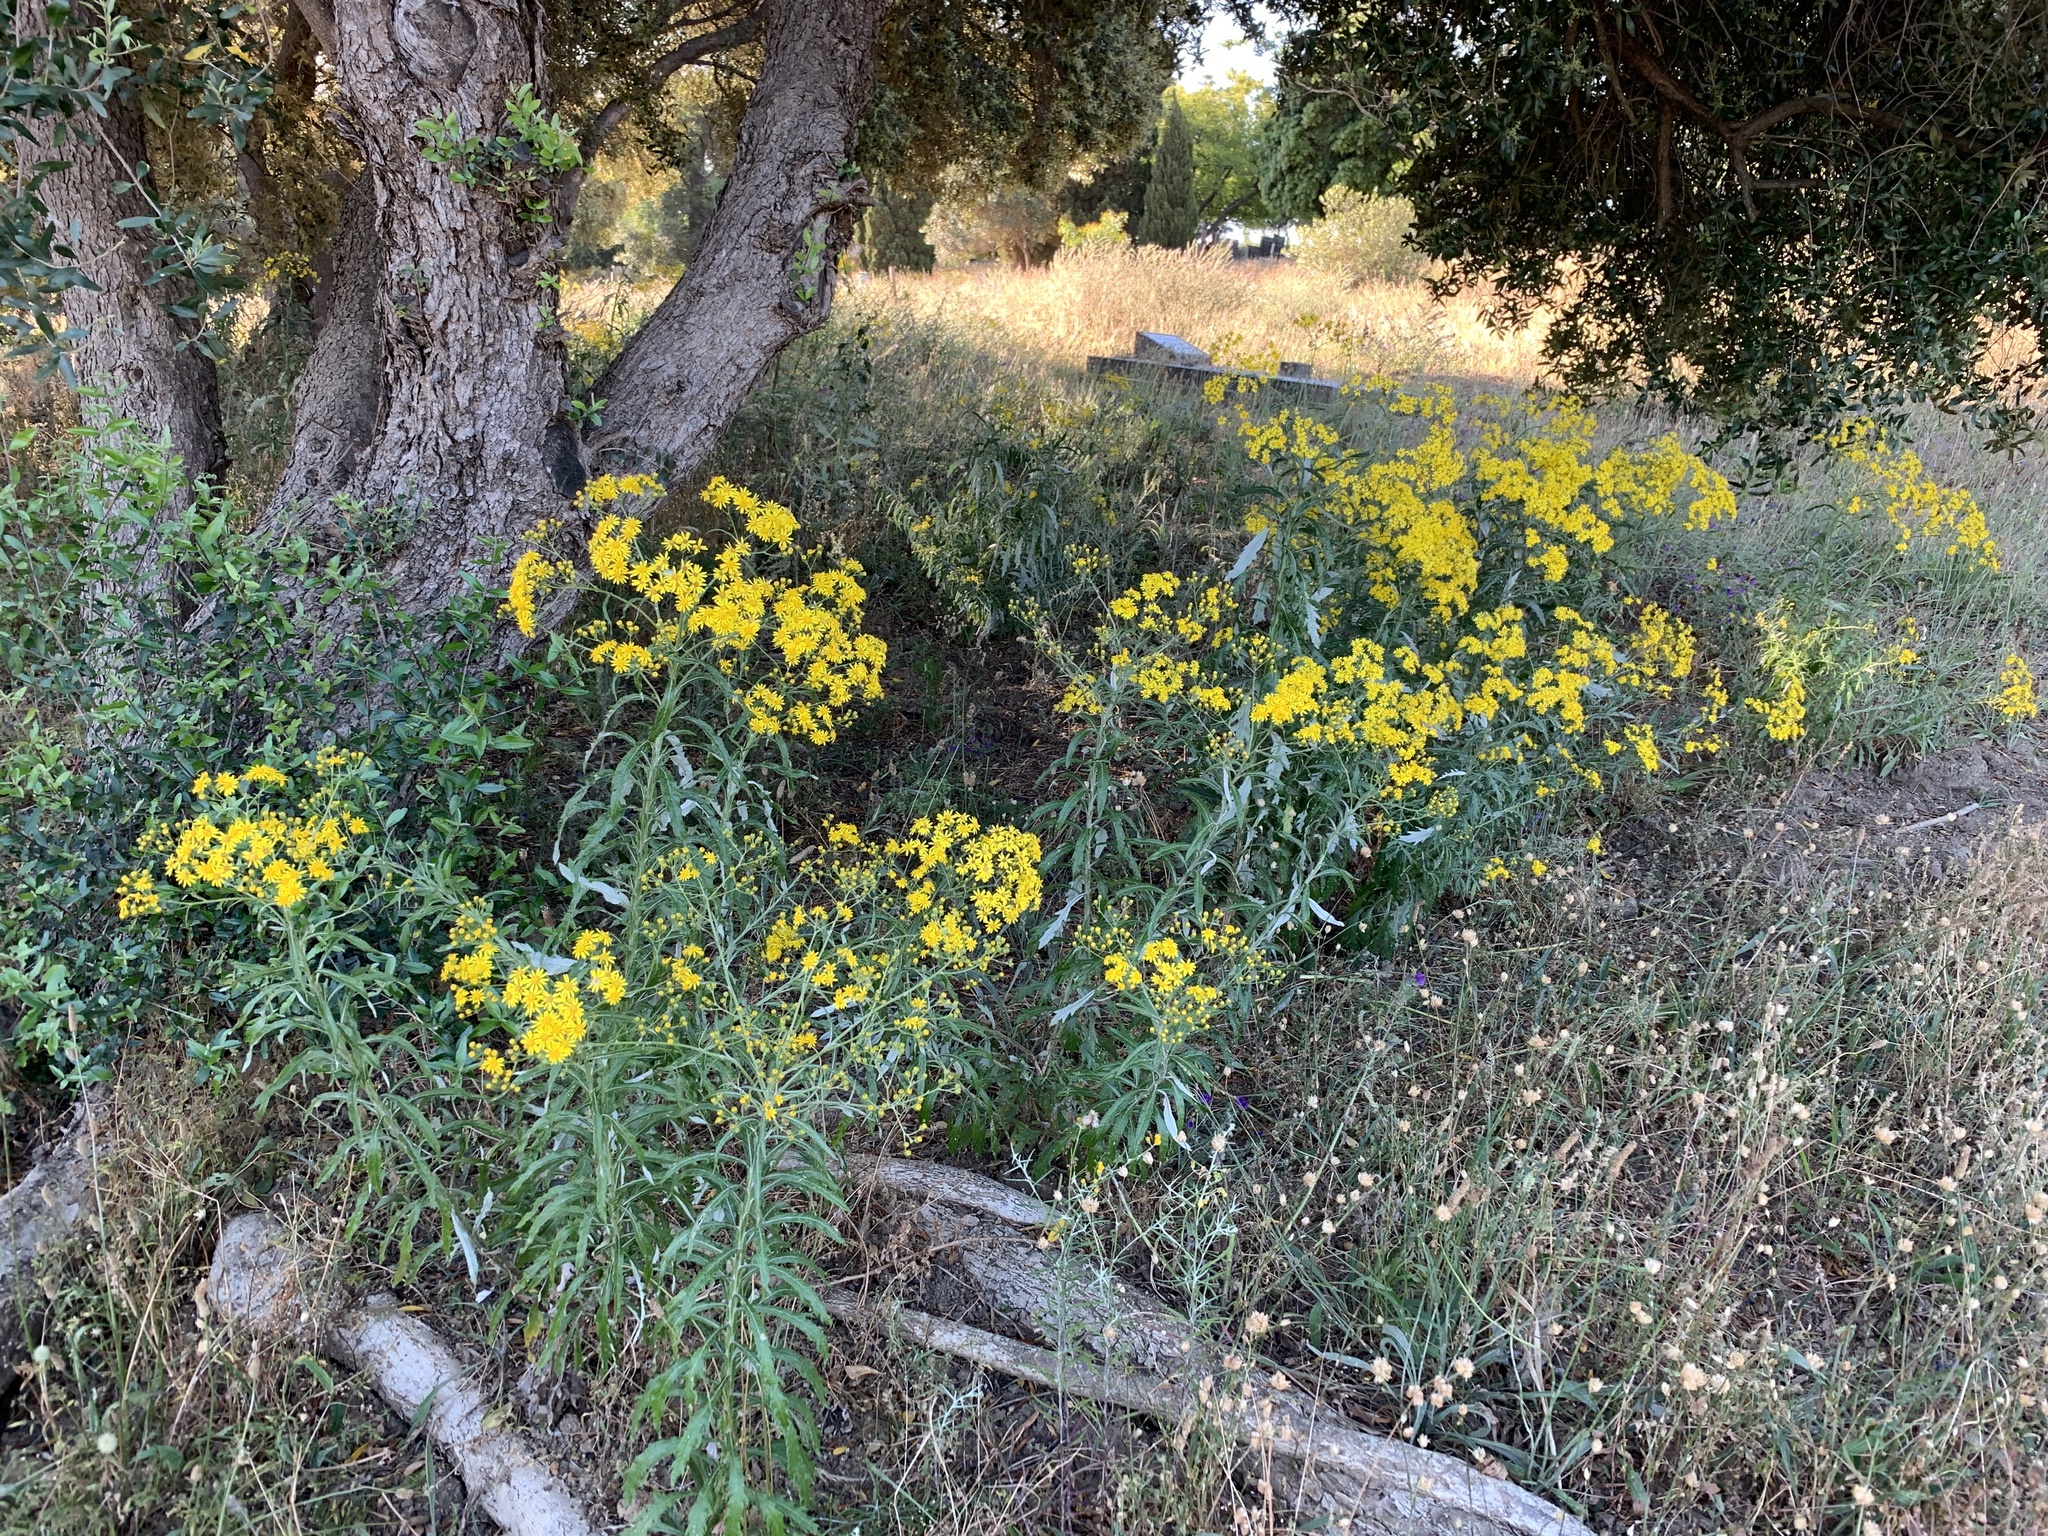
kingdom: Plantae
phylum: Tracheophyta
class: Magnoliopsida
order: Asterales
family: Asteraceae
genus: Senecio
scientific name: Senecio pterophorus
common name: Shoddy ragwort
